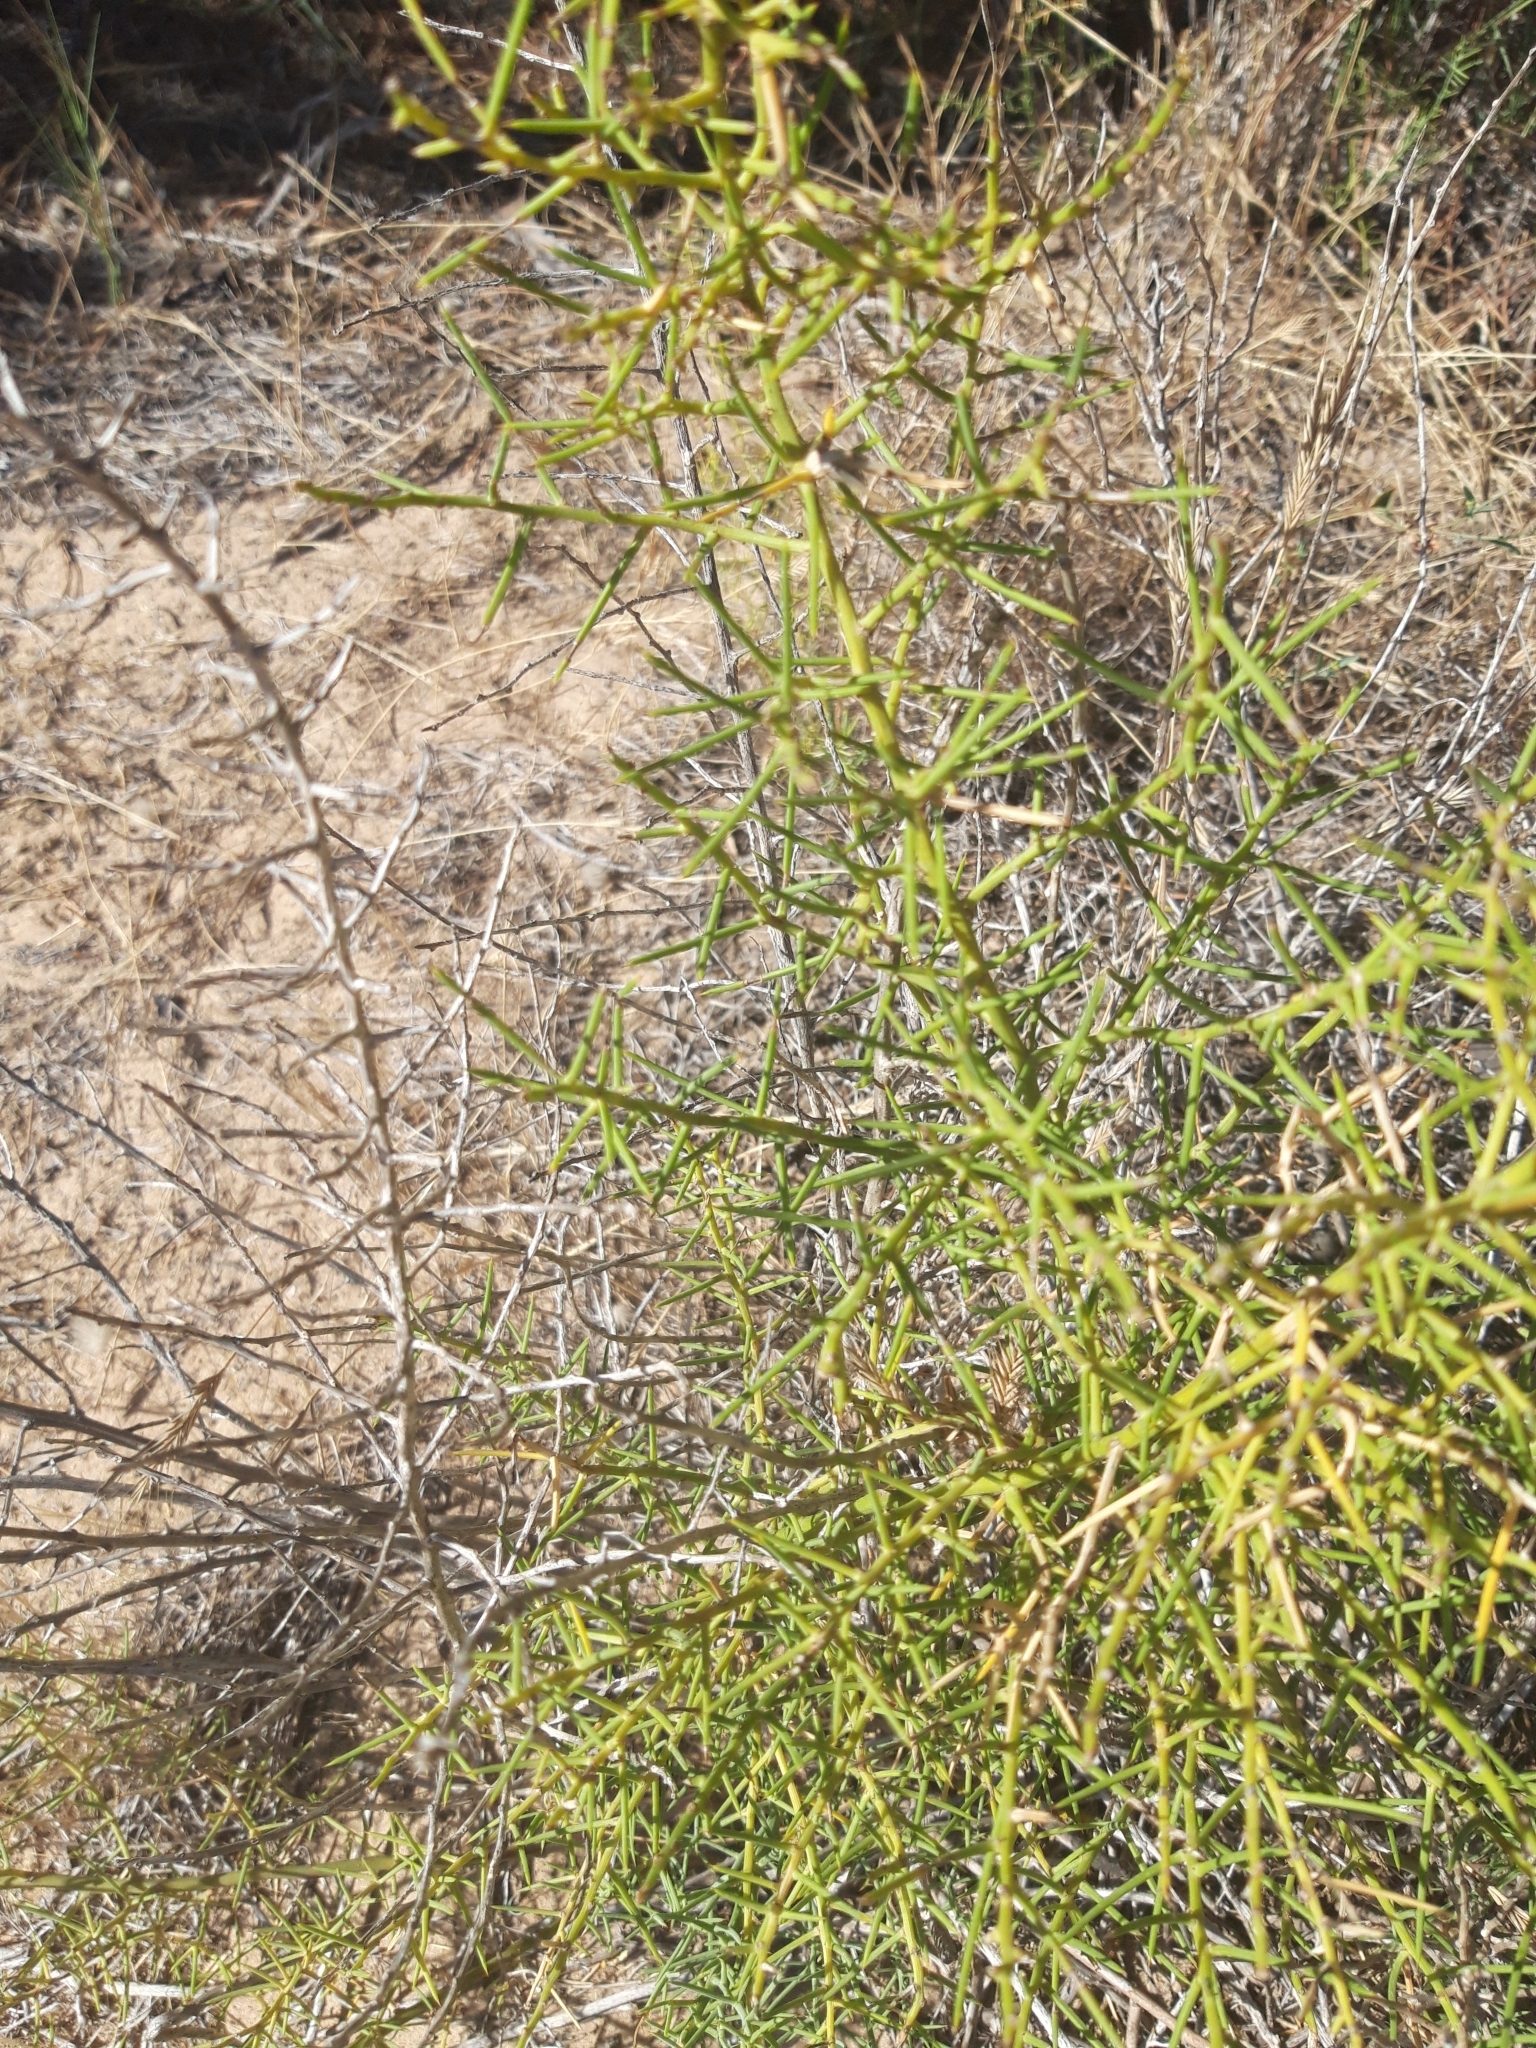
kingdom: Plantae
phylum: Tracheophyta
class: Liliopsida
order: Asparagales
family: Asparagaceae
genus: Asparagus
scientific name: Asparagus horridus
